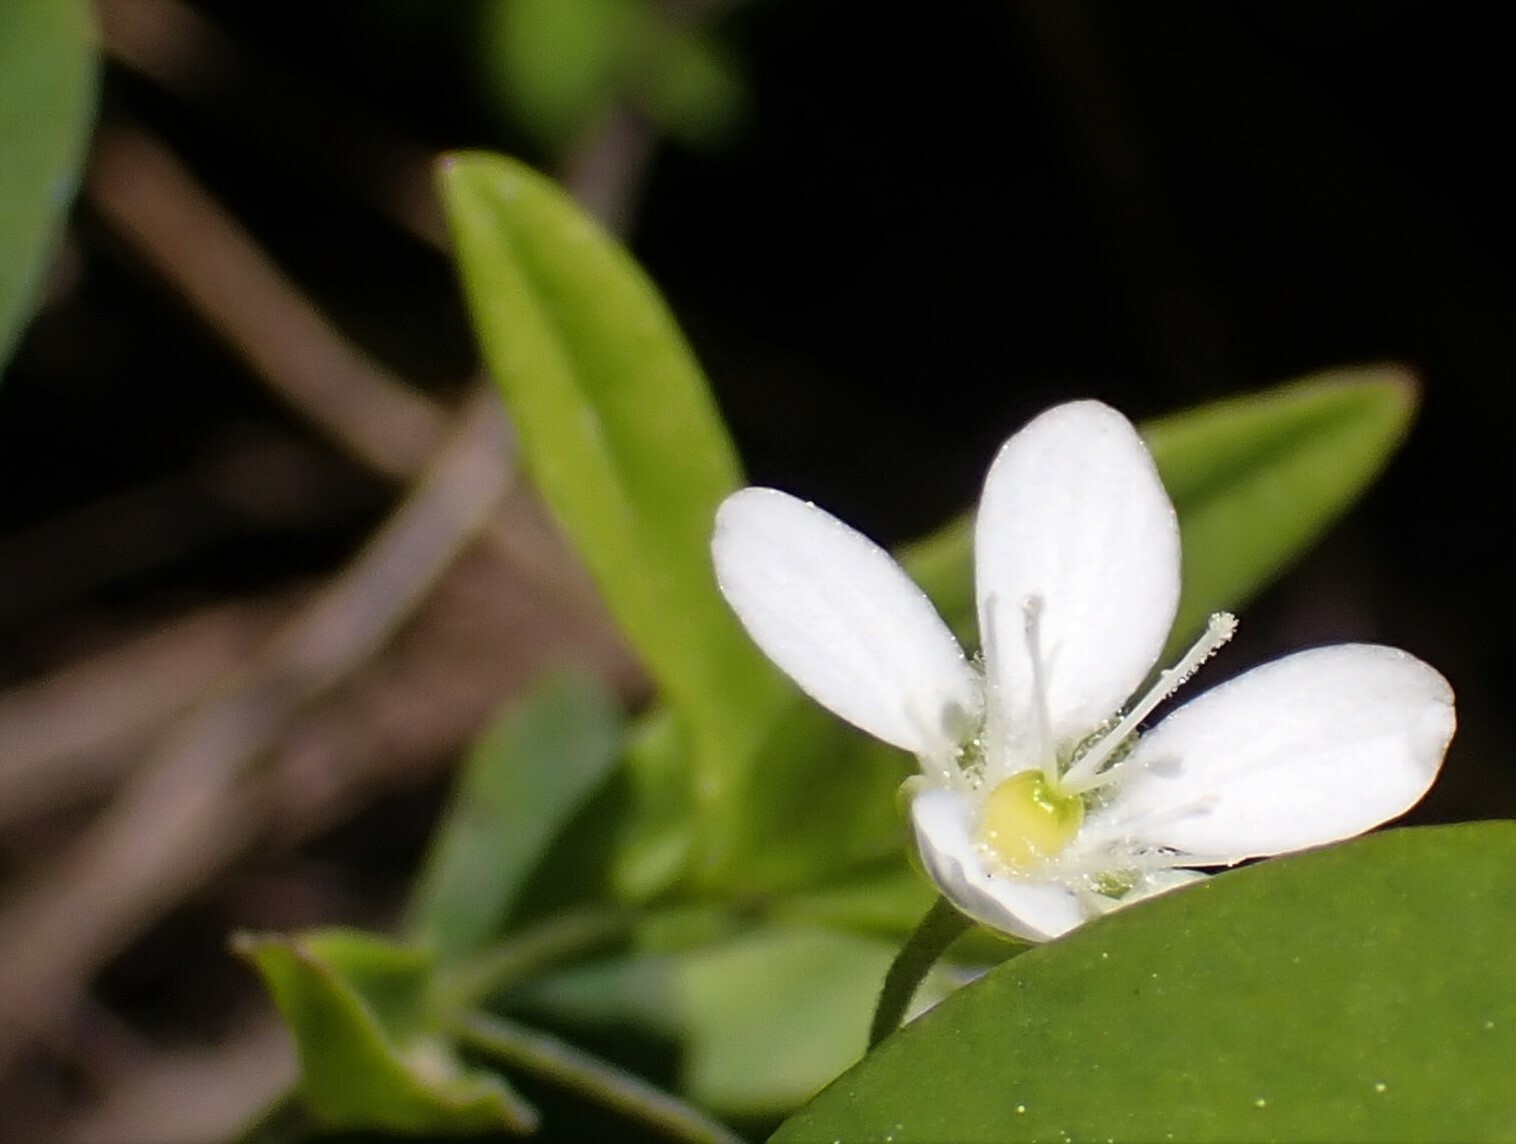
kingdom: Plantae
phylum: Tracheophyta
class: Magnoliopsida
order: Caryophyllales
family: Caryophyllaceae
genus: Moehringia
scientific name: Moehringia lateriflora
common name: Blunt-leaved sandwort
